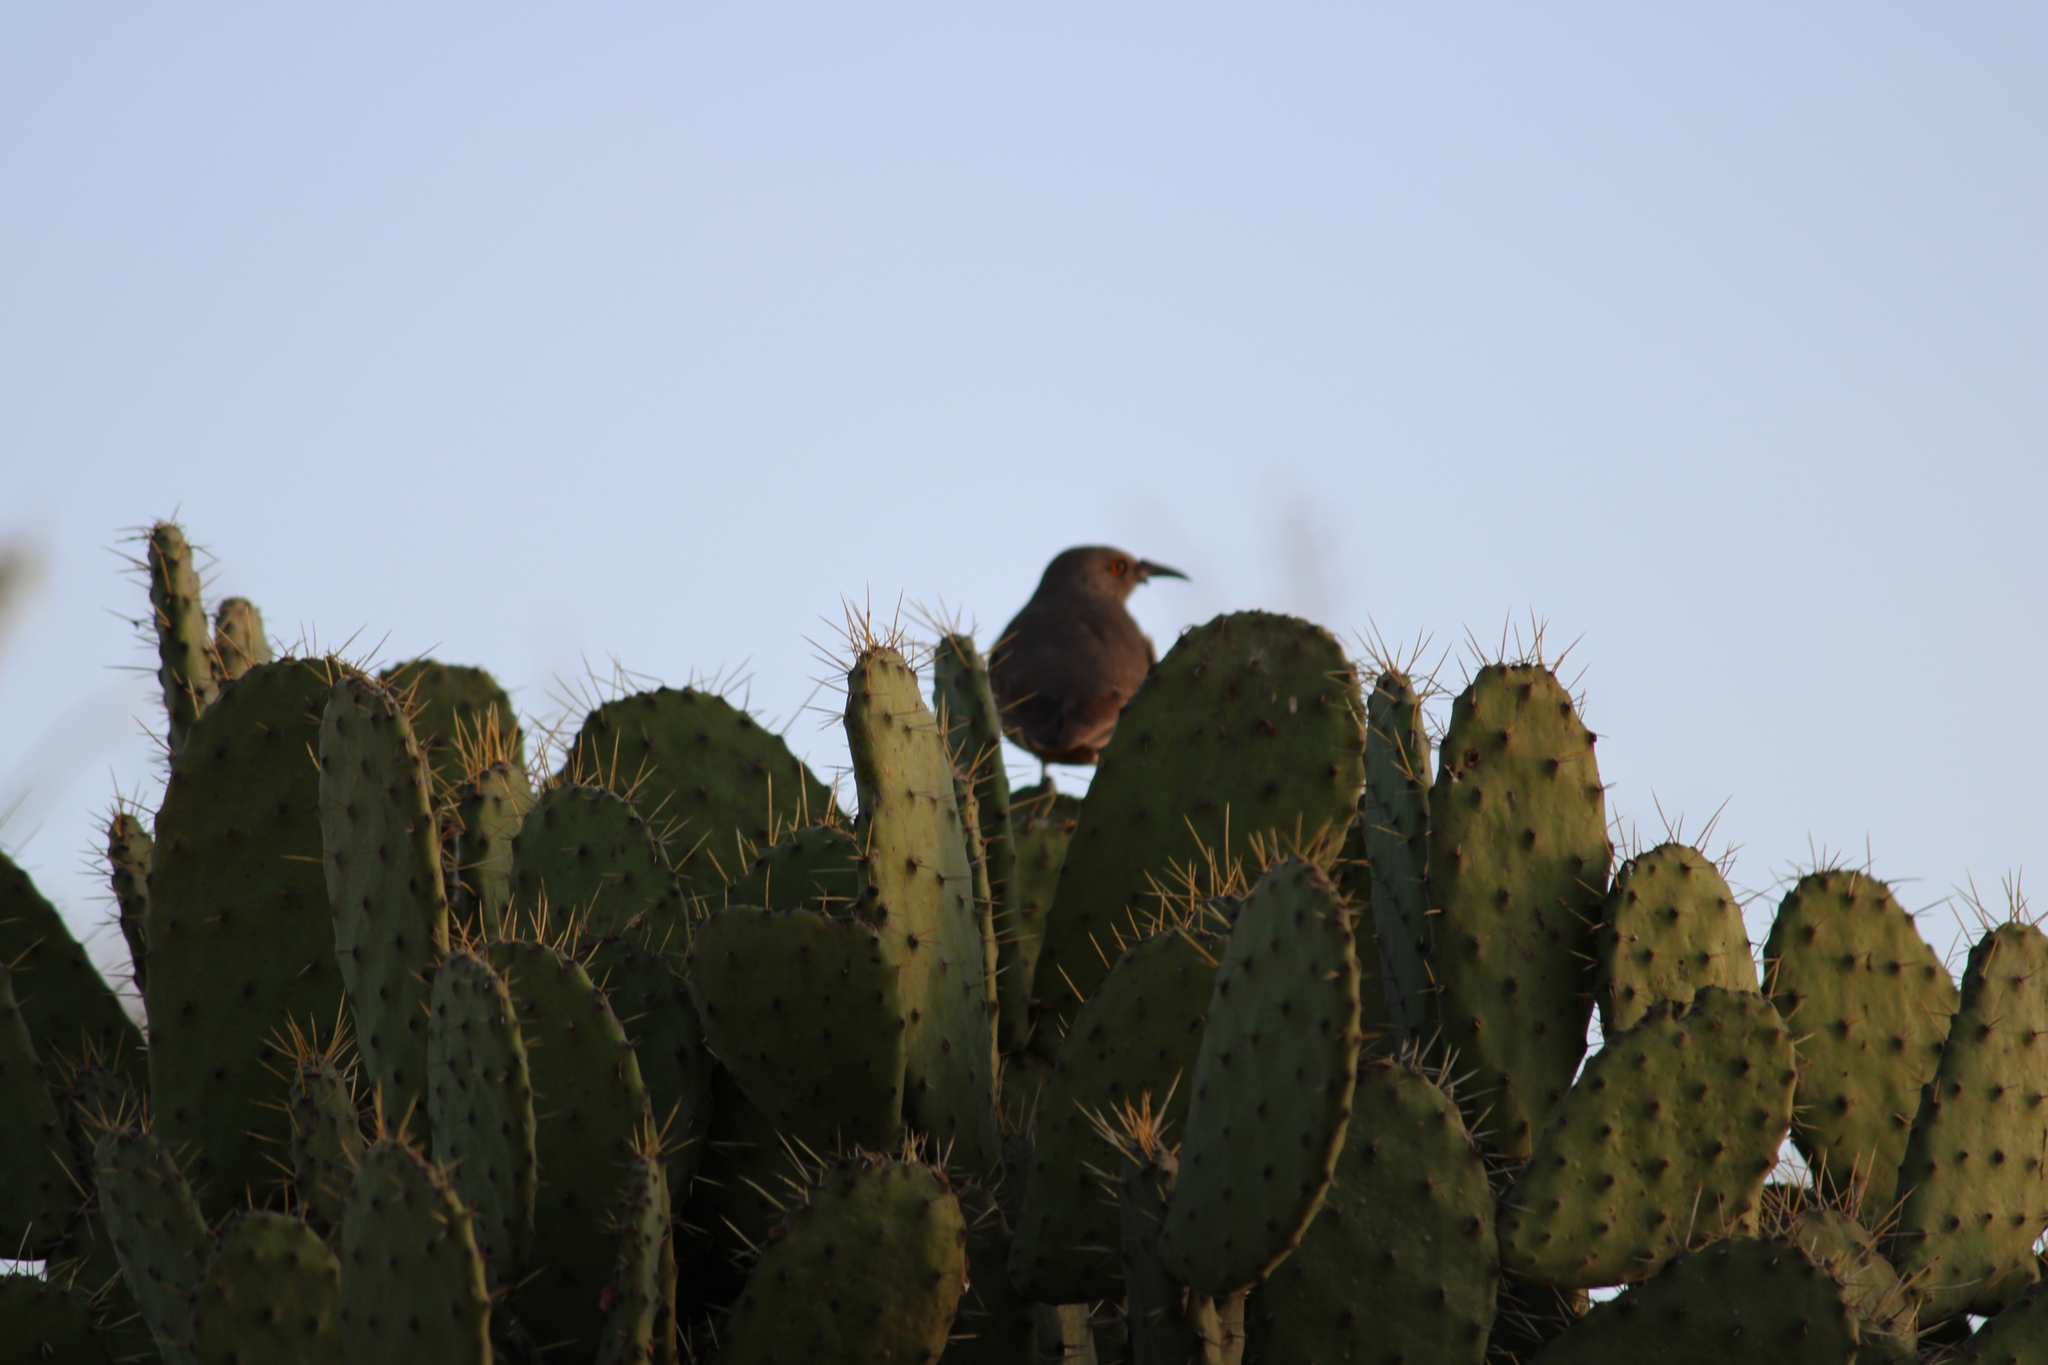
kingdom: Animalia
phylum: Chordata
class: Aves
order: Passeriformes
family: Mimidae
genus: Toxostoma
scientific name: Toxostoma curvirostre
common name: Curve-billed thrasher
